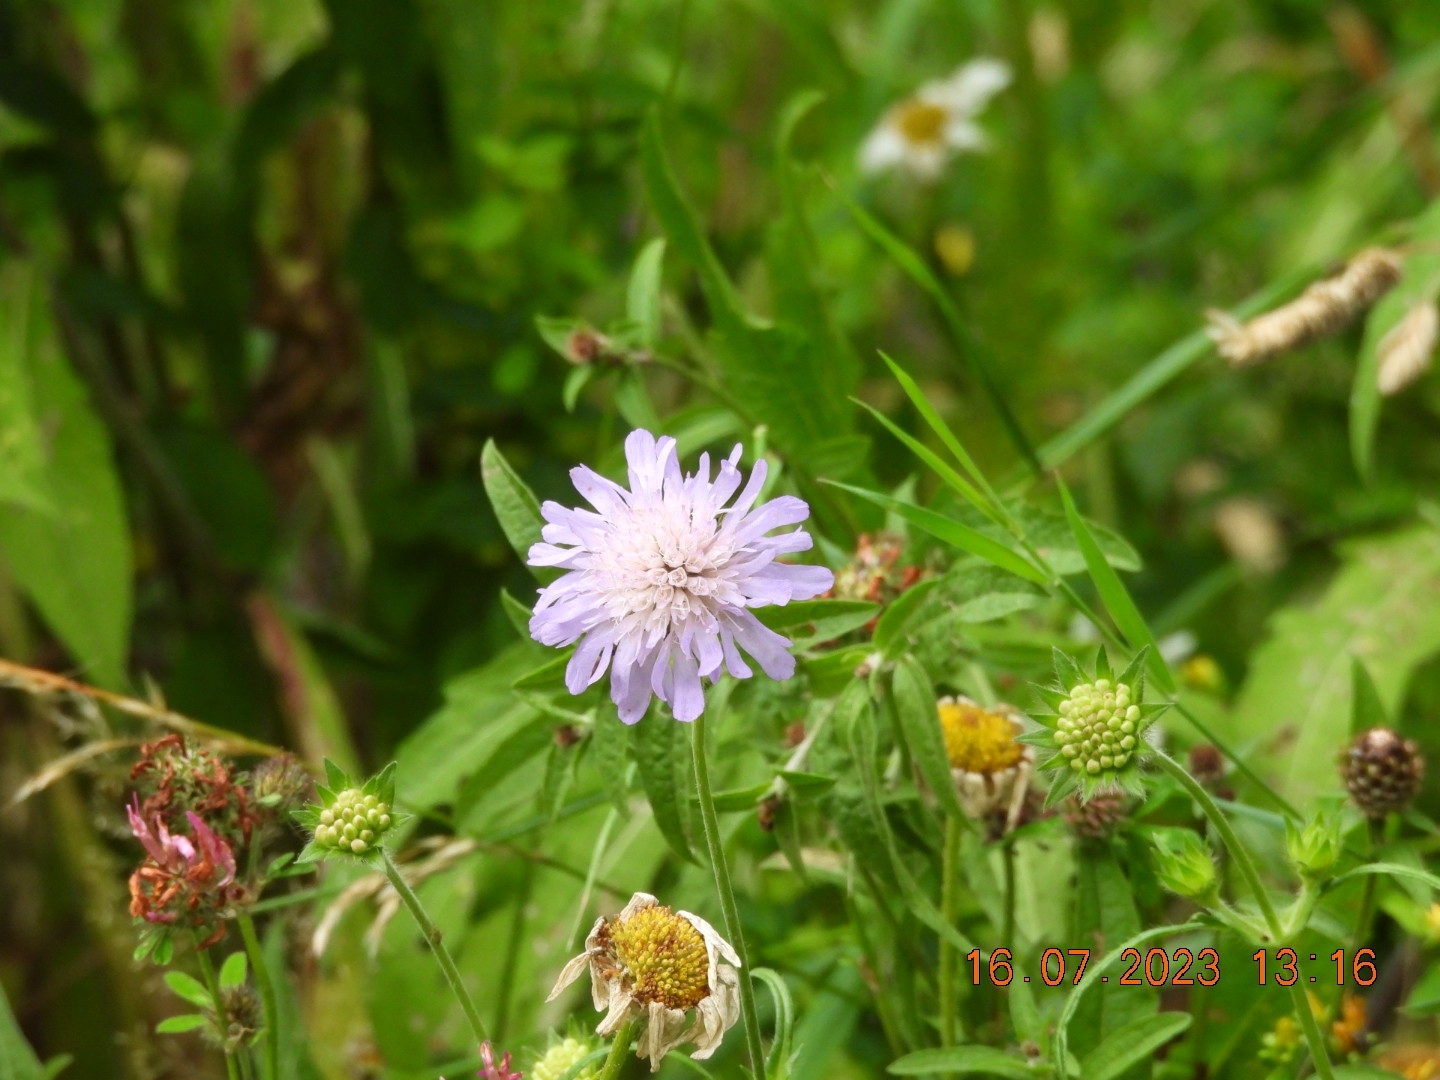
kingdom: Plantae
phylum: Tracheophyta
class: Magnoliopsida
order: Dipsacales
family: Caprifoliaceae
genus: Knautia
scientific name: Knautia arvensis
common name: Field scabiosa
